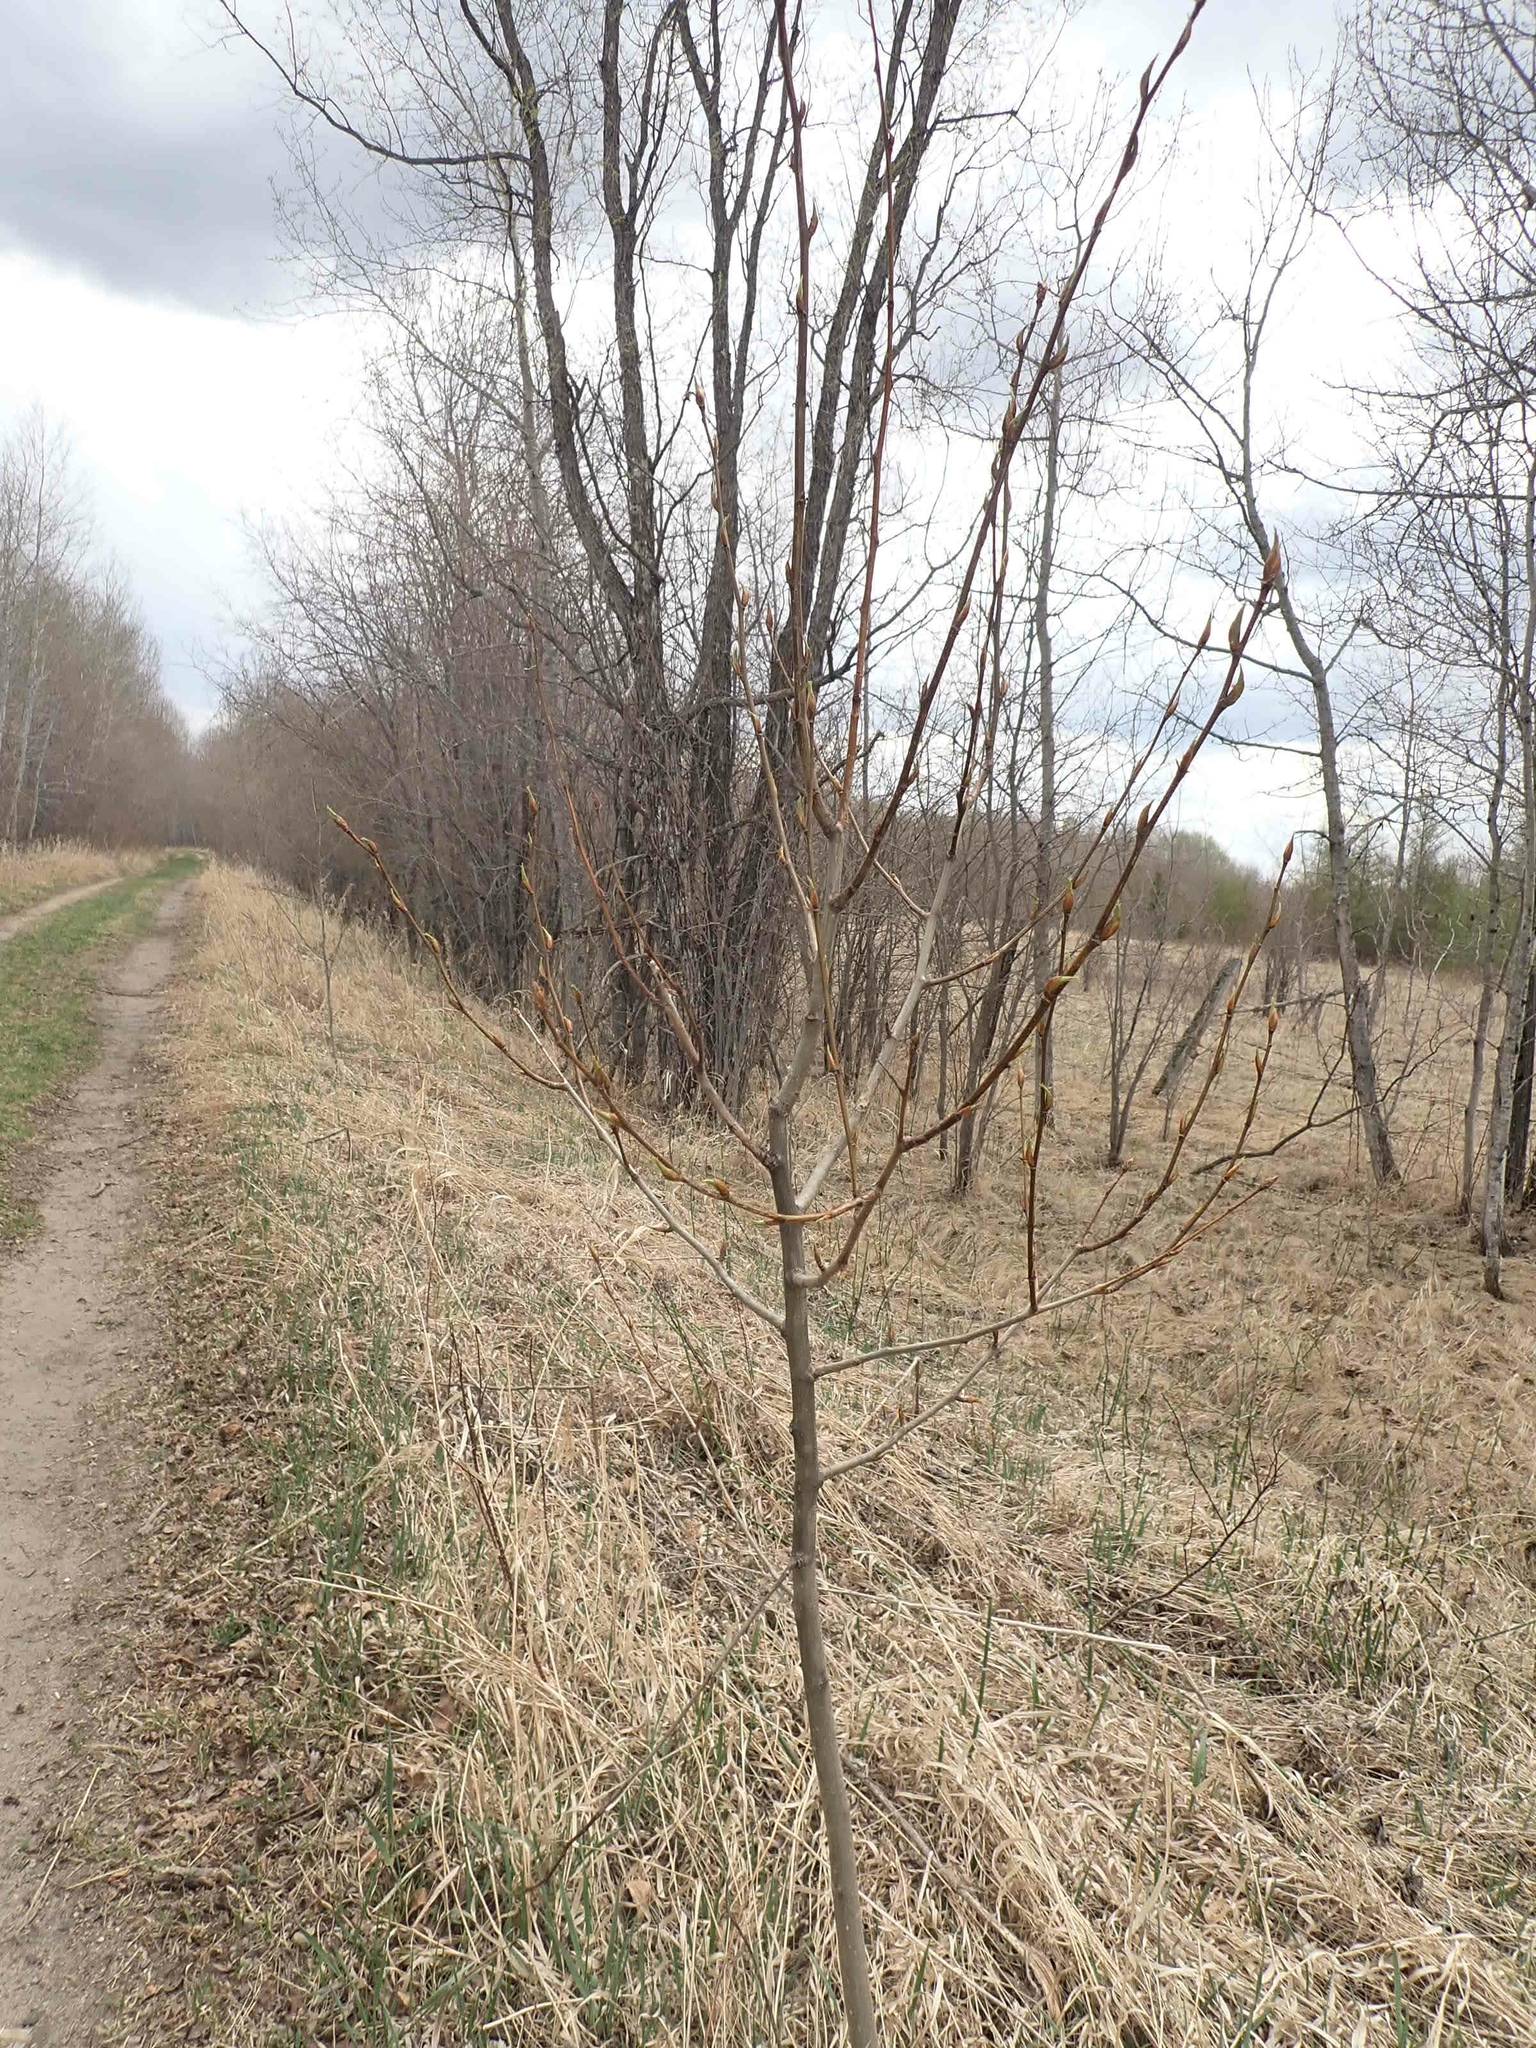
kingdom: Plantae
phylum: Tracheophyta
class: Magnoliopsida
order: Malpighiales
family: Salicaceae
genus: Populus
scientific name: Populus balsamifera
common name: Balsam poplar
